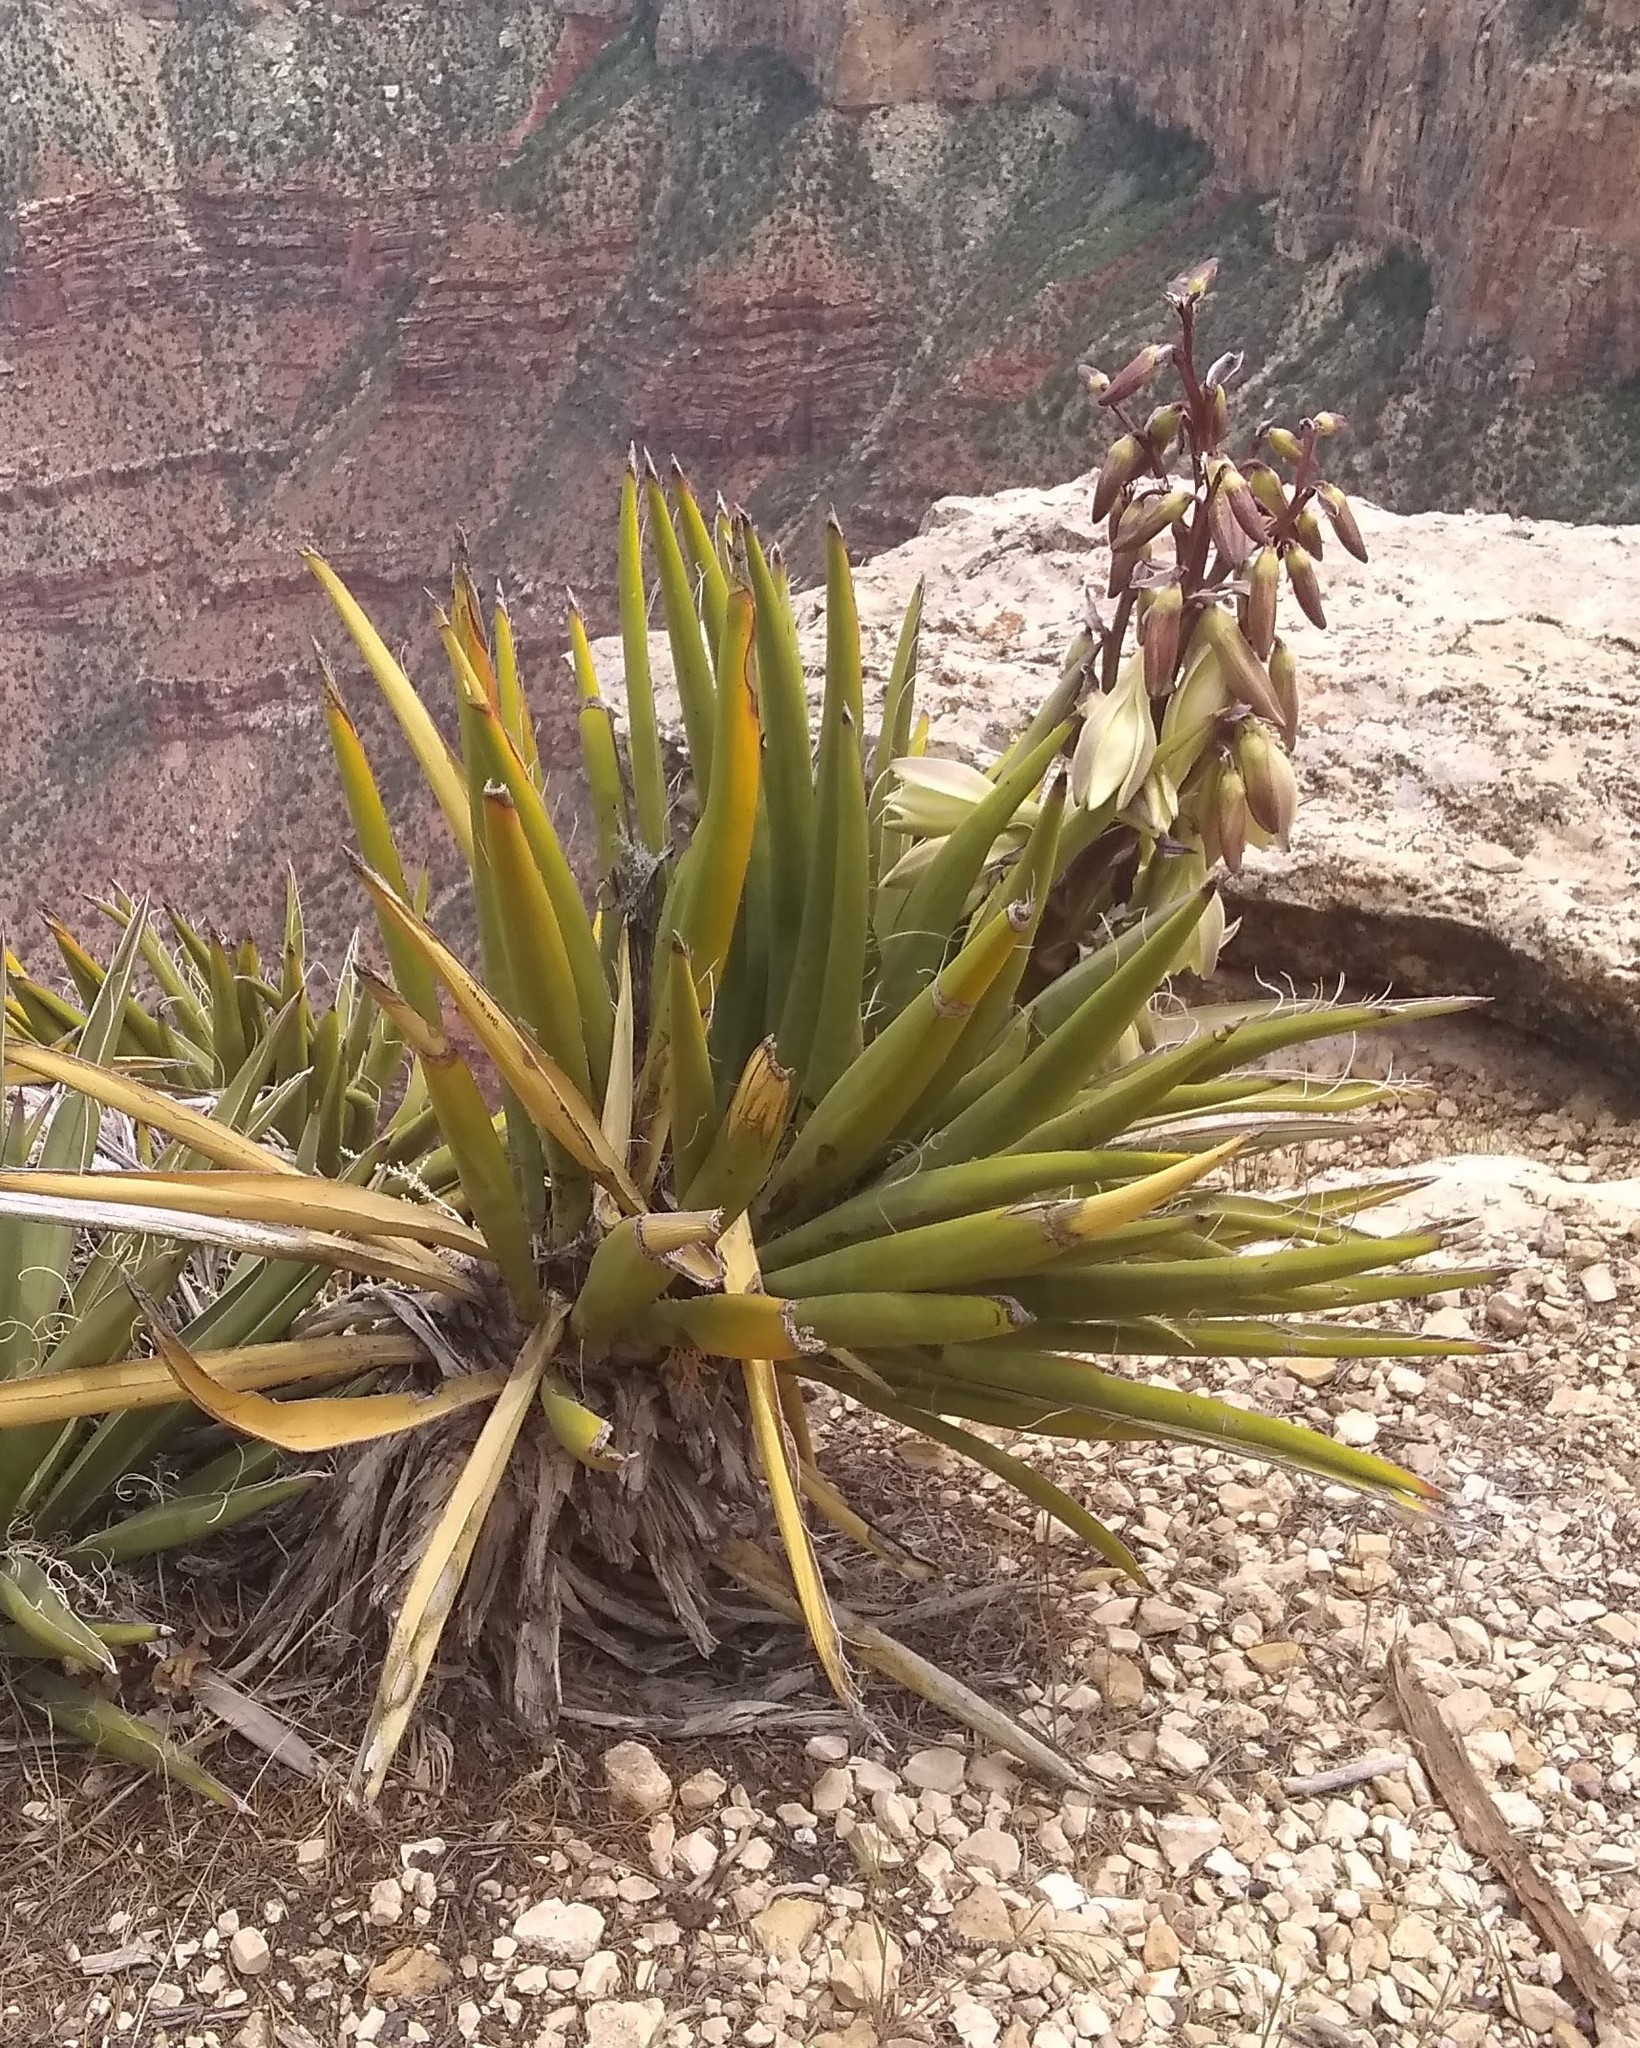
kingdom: Plantae
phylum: Tracheophyta
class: Liliopsida
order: Asparagales
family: Asparagaceae
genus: Yucca
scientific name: Yucca baccata
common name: Banana yucca
